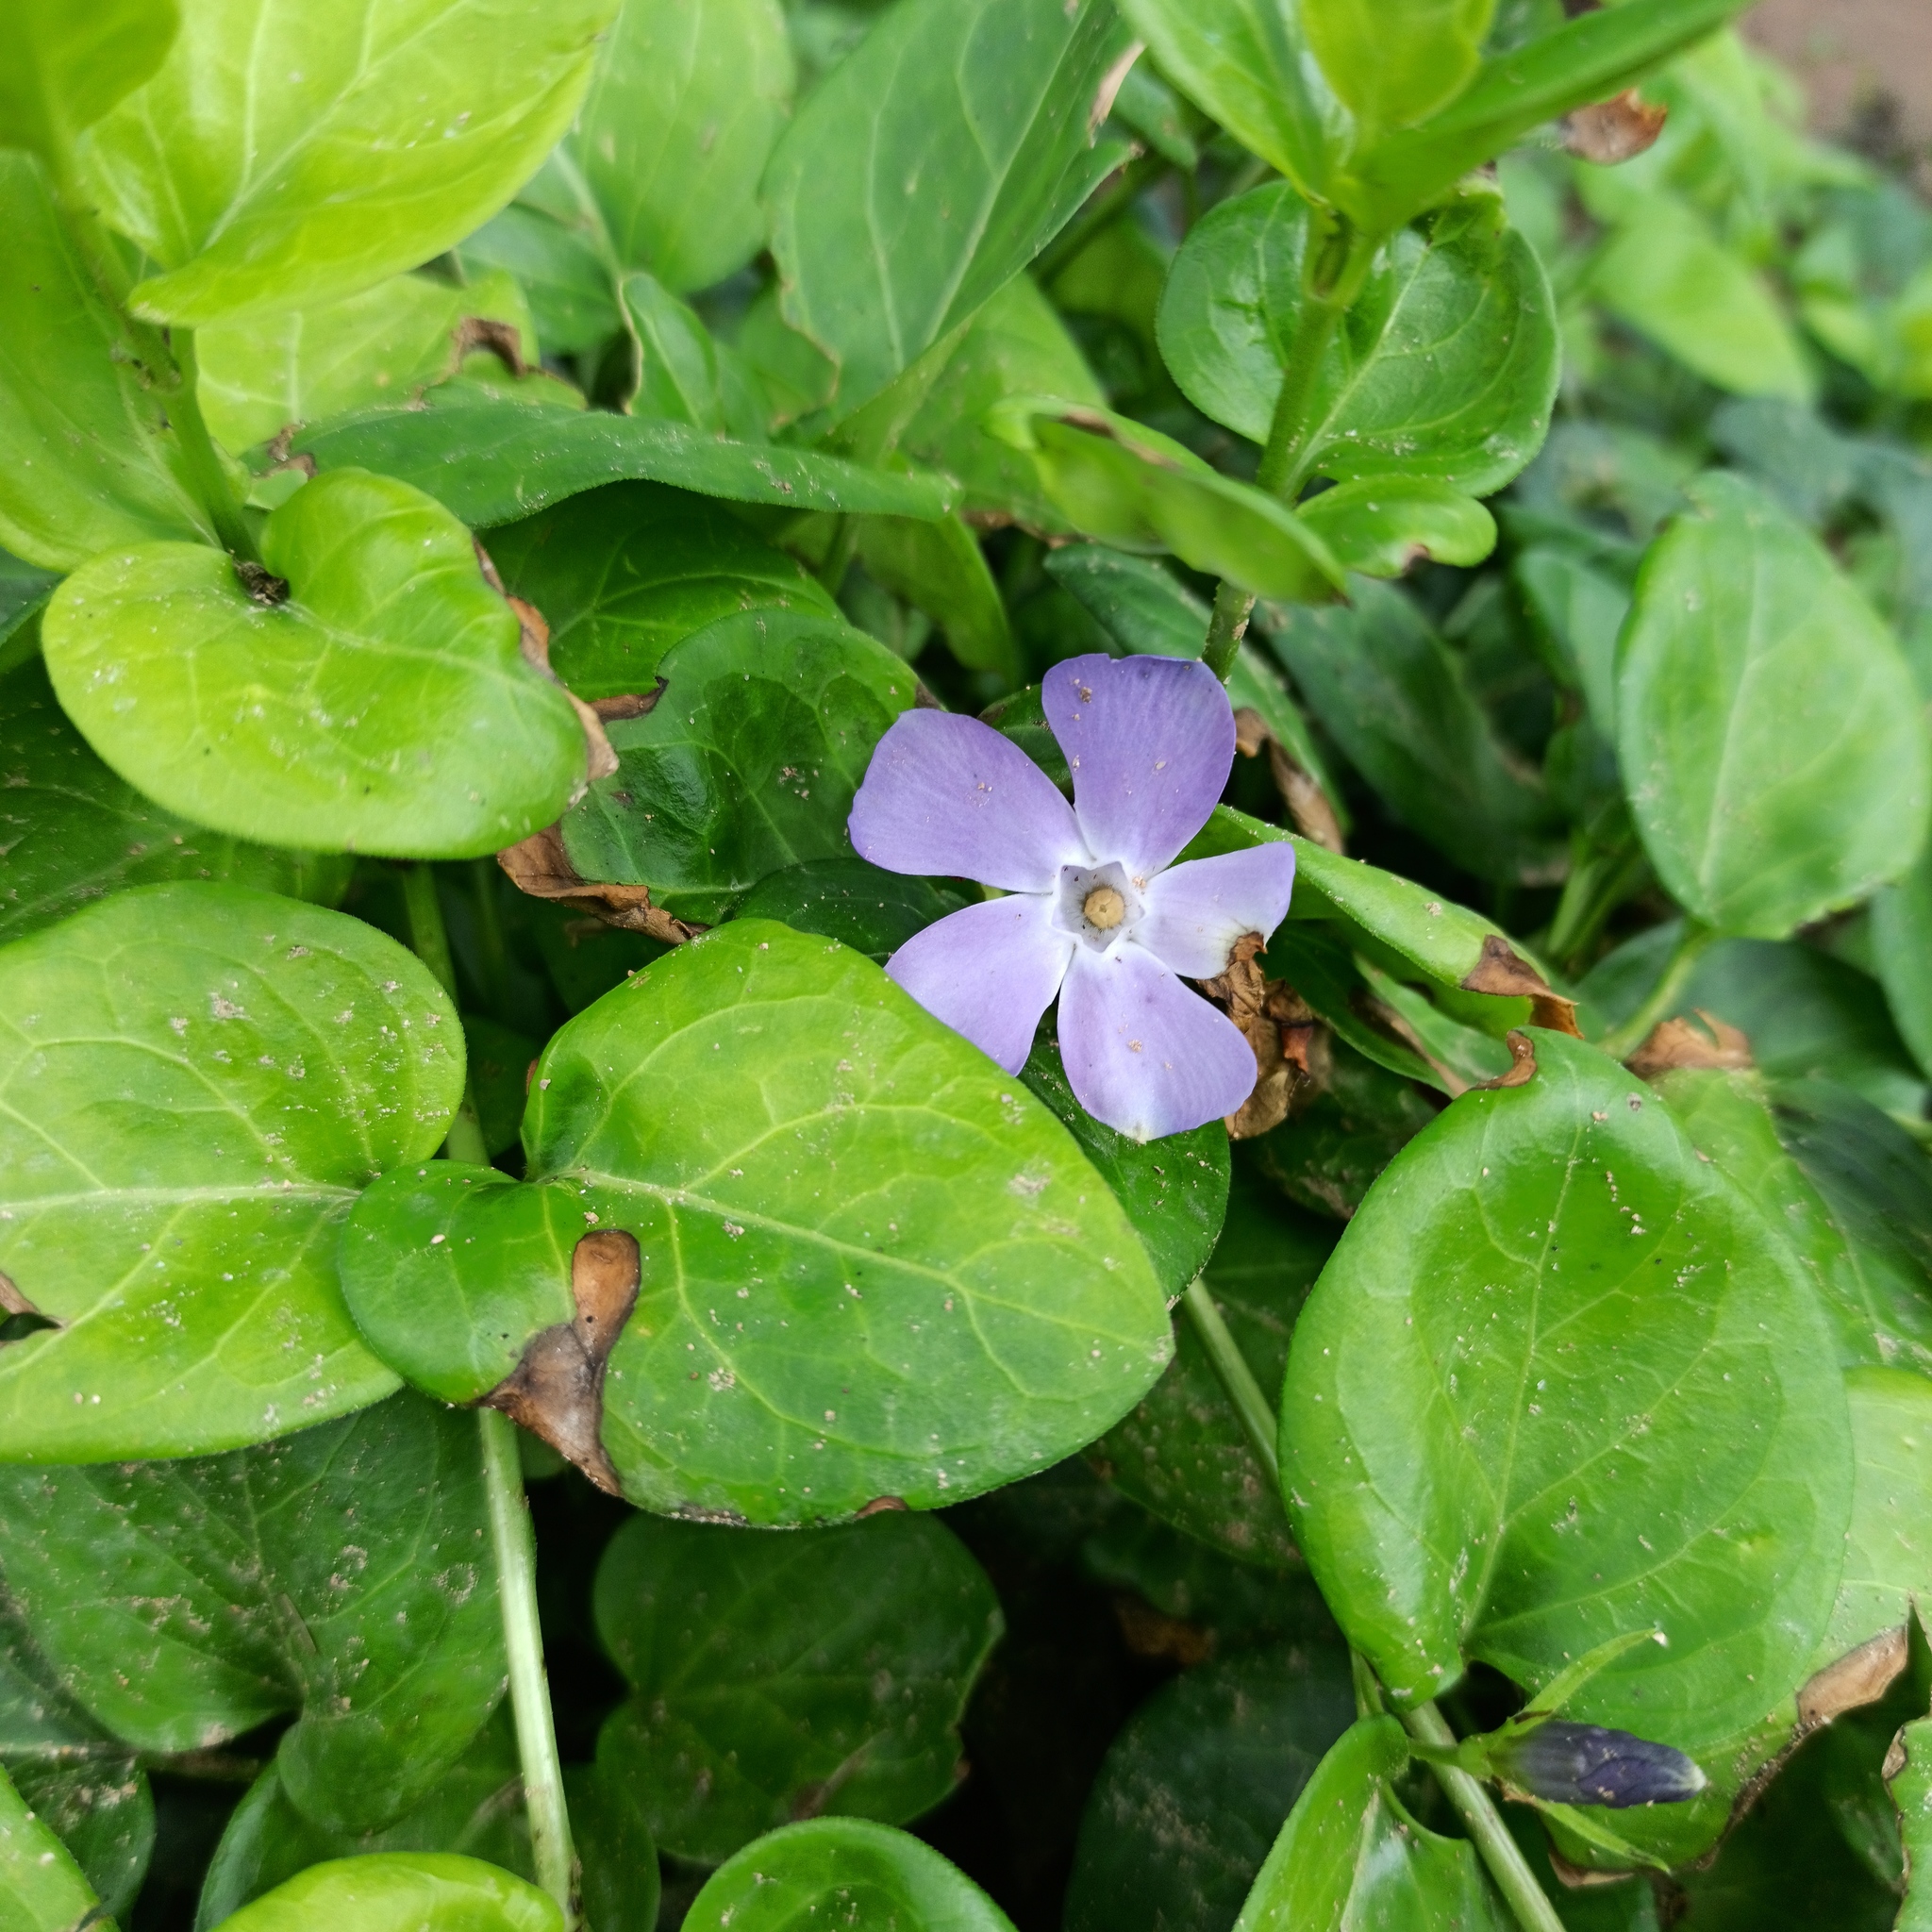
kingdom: Plantae
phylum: Tracheophyta
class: Magnoliopsida
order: Gentianales
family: Apocynaceae
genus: Vinca
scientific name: Vinca major
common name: Greater periwinkle
